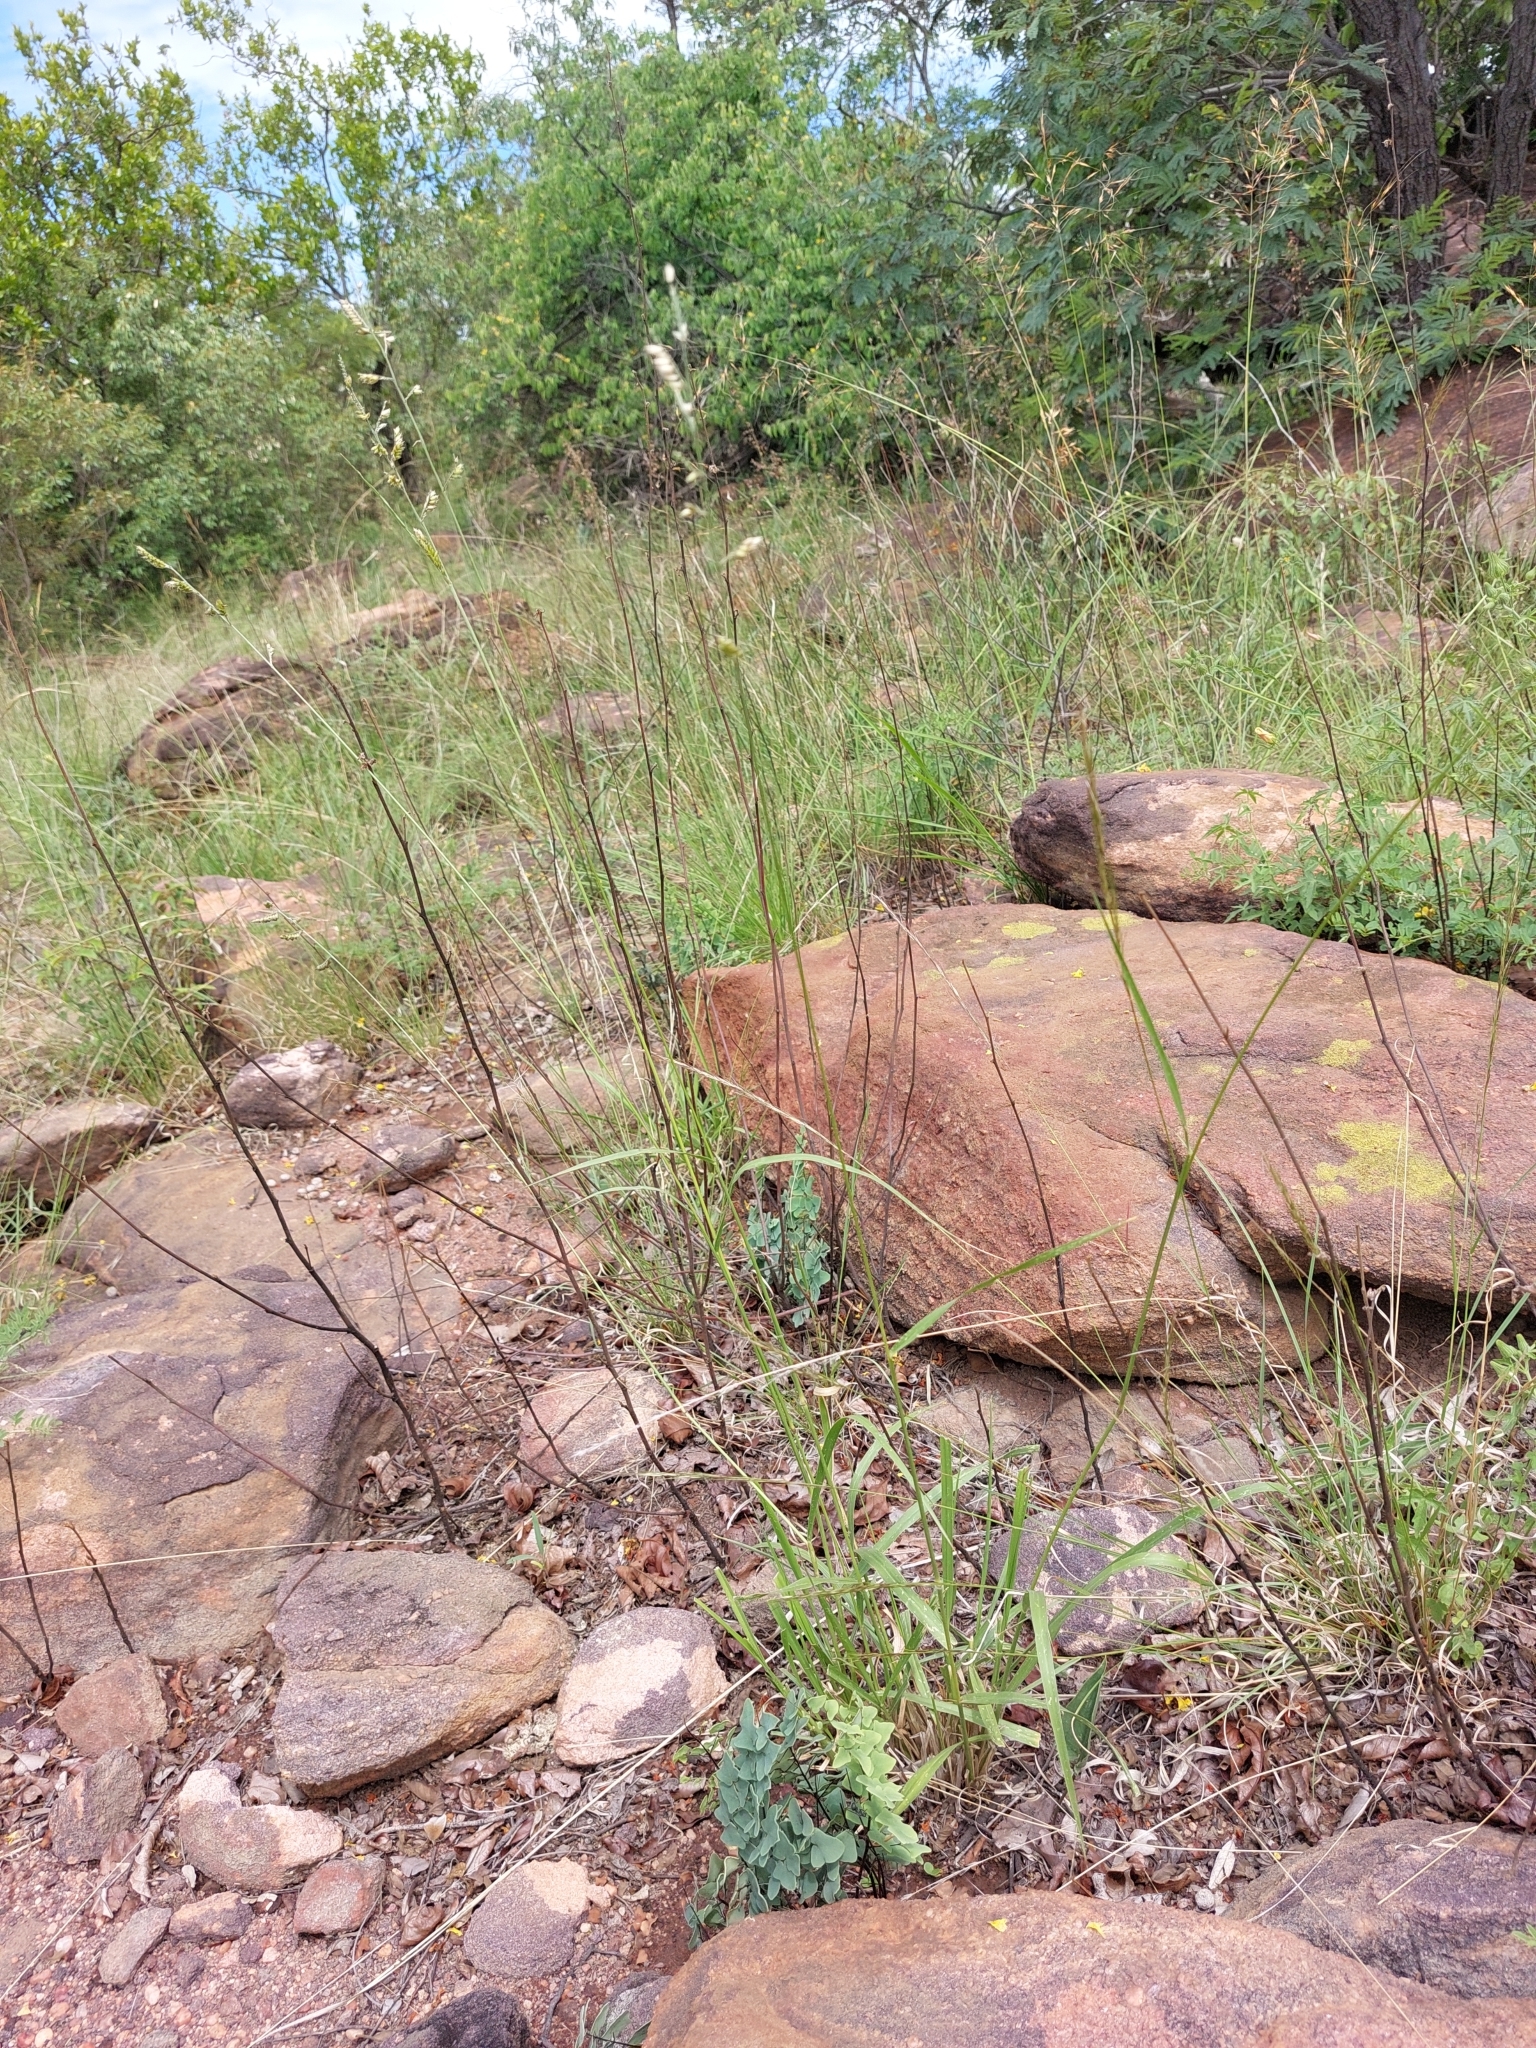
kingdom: Plantae
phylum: Tracheophyta
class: Liliopsida
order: Poales
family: Poaceae
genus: Urochloa
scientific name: Urochloa nigropedata
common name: Spotted signal grass
